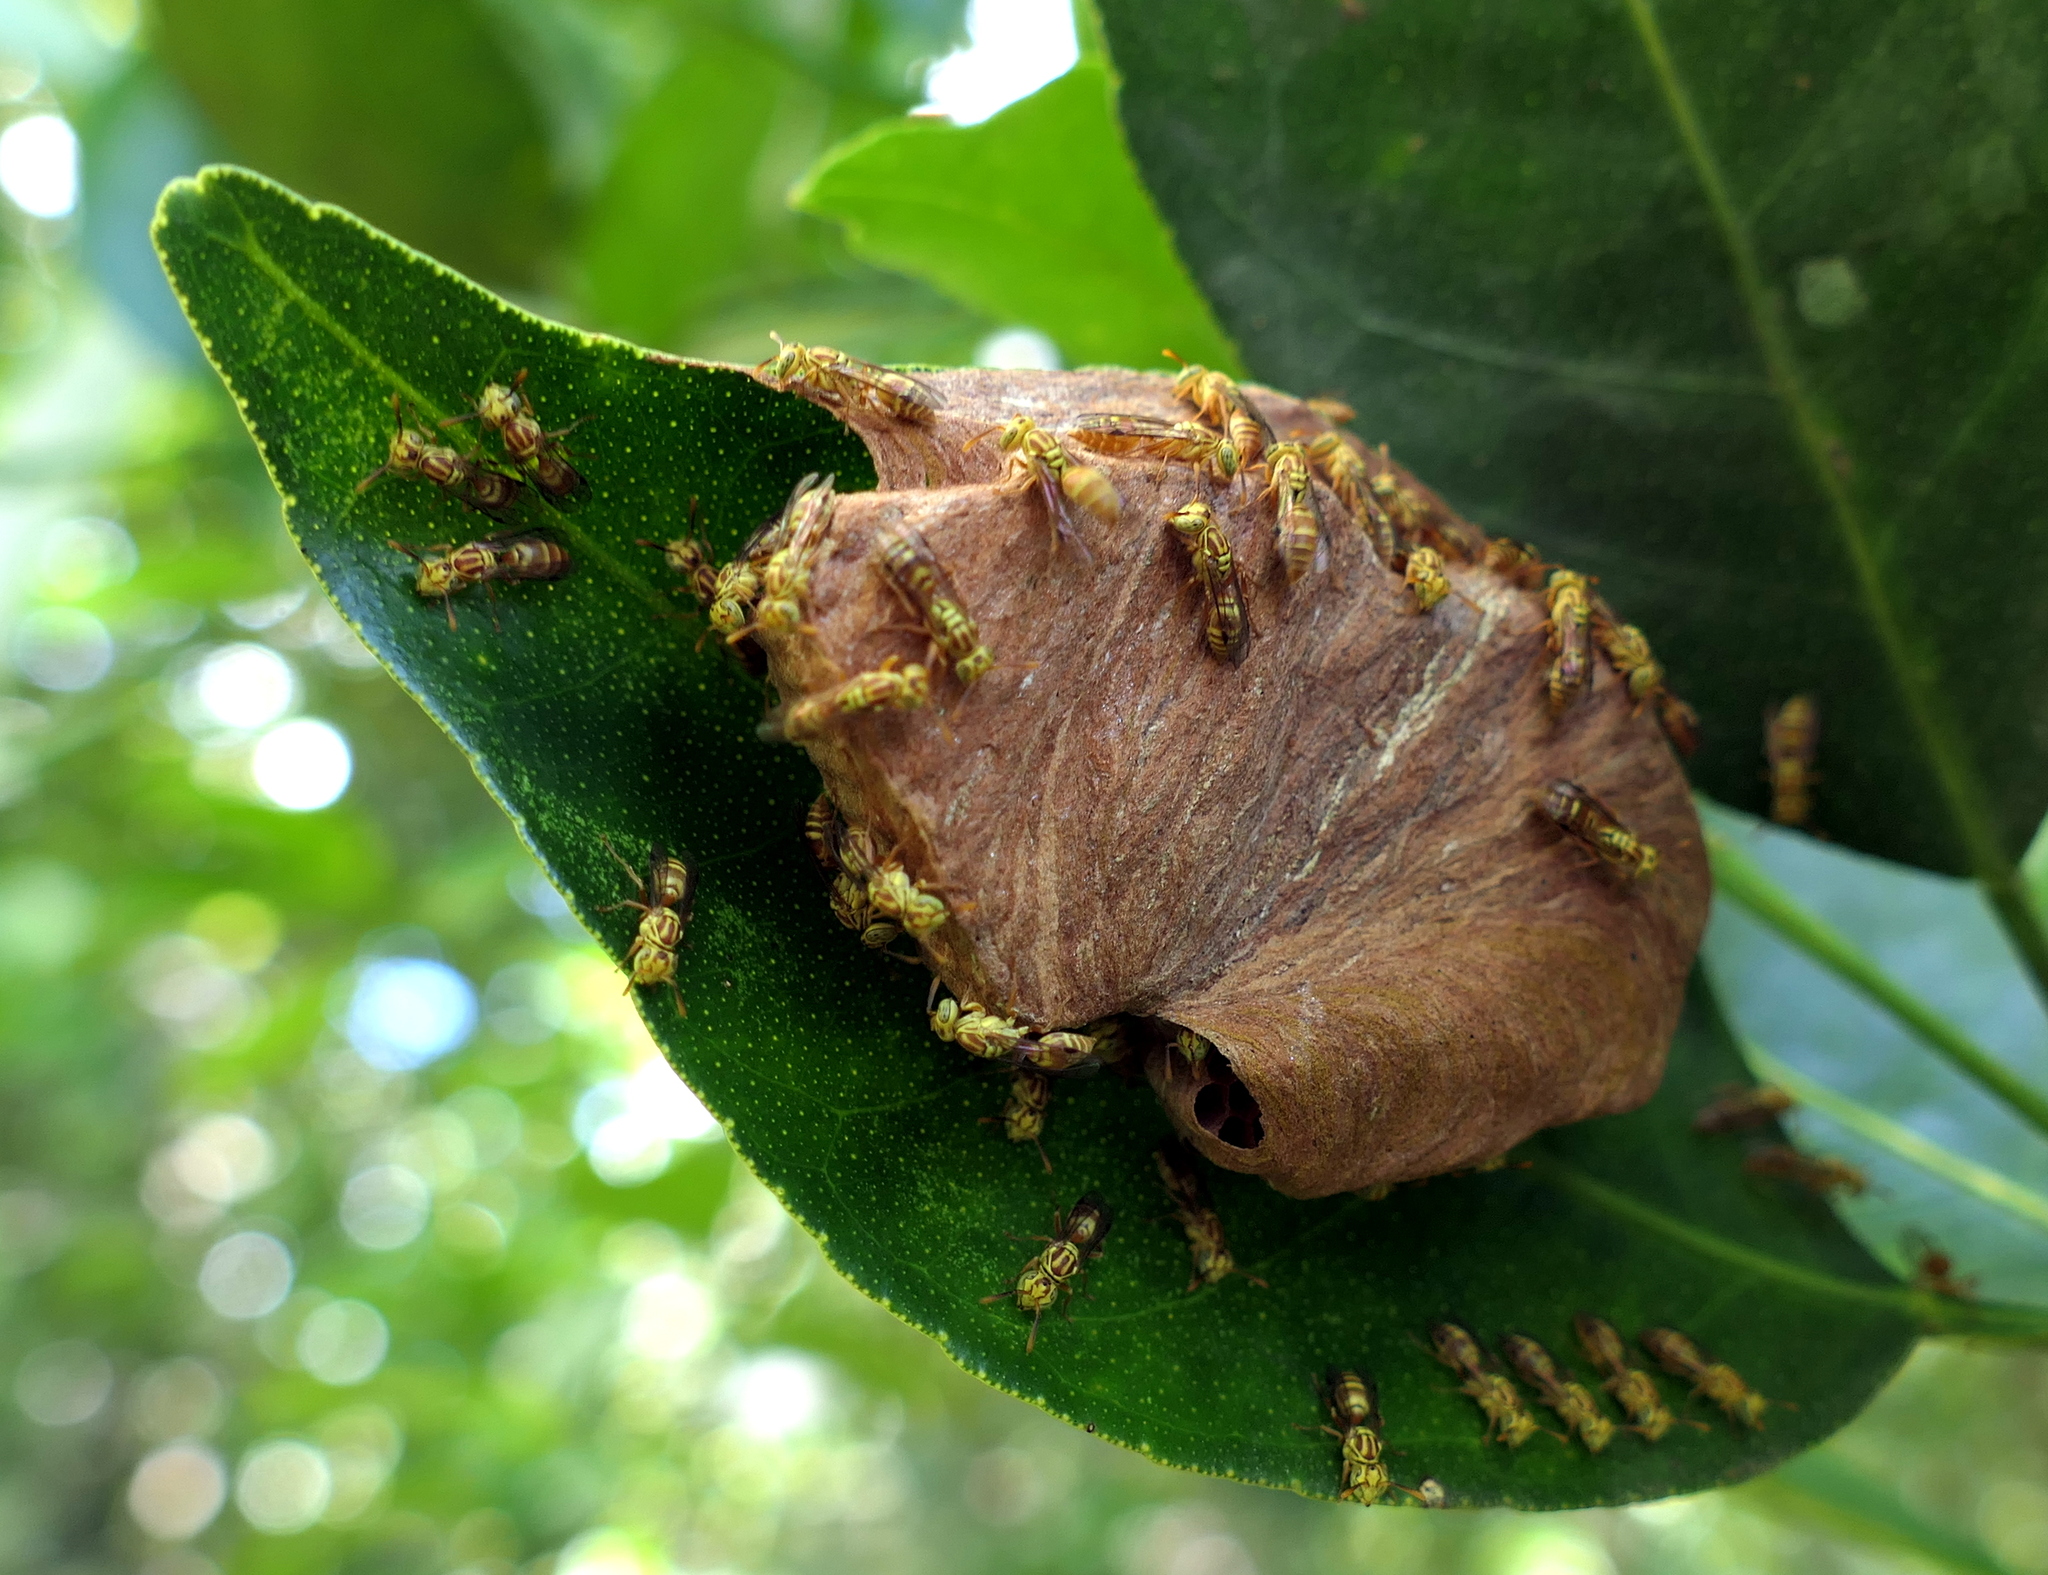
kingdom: Animalia
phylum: Arthropoda
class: Insecta
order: Hymenoptera
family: Vespidae
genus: Protopolybia
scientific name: Protopolybia potiguara
